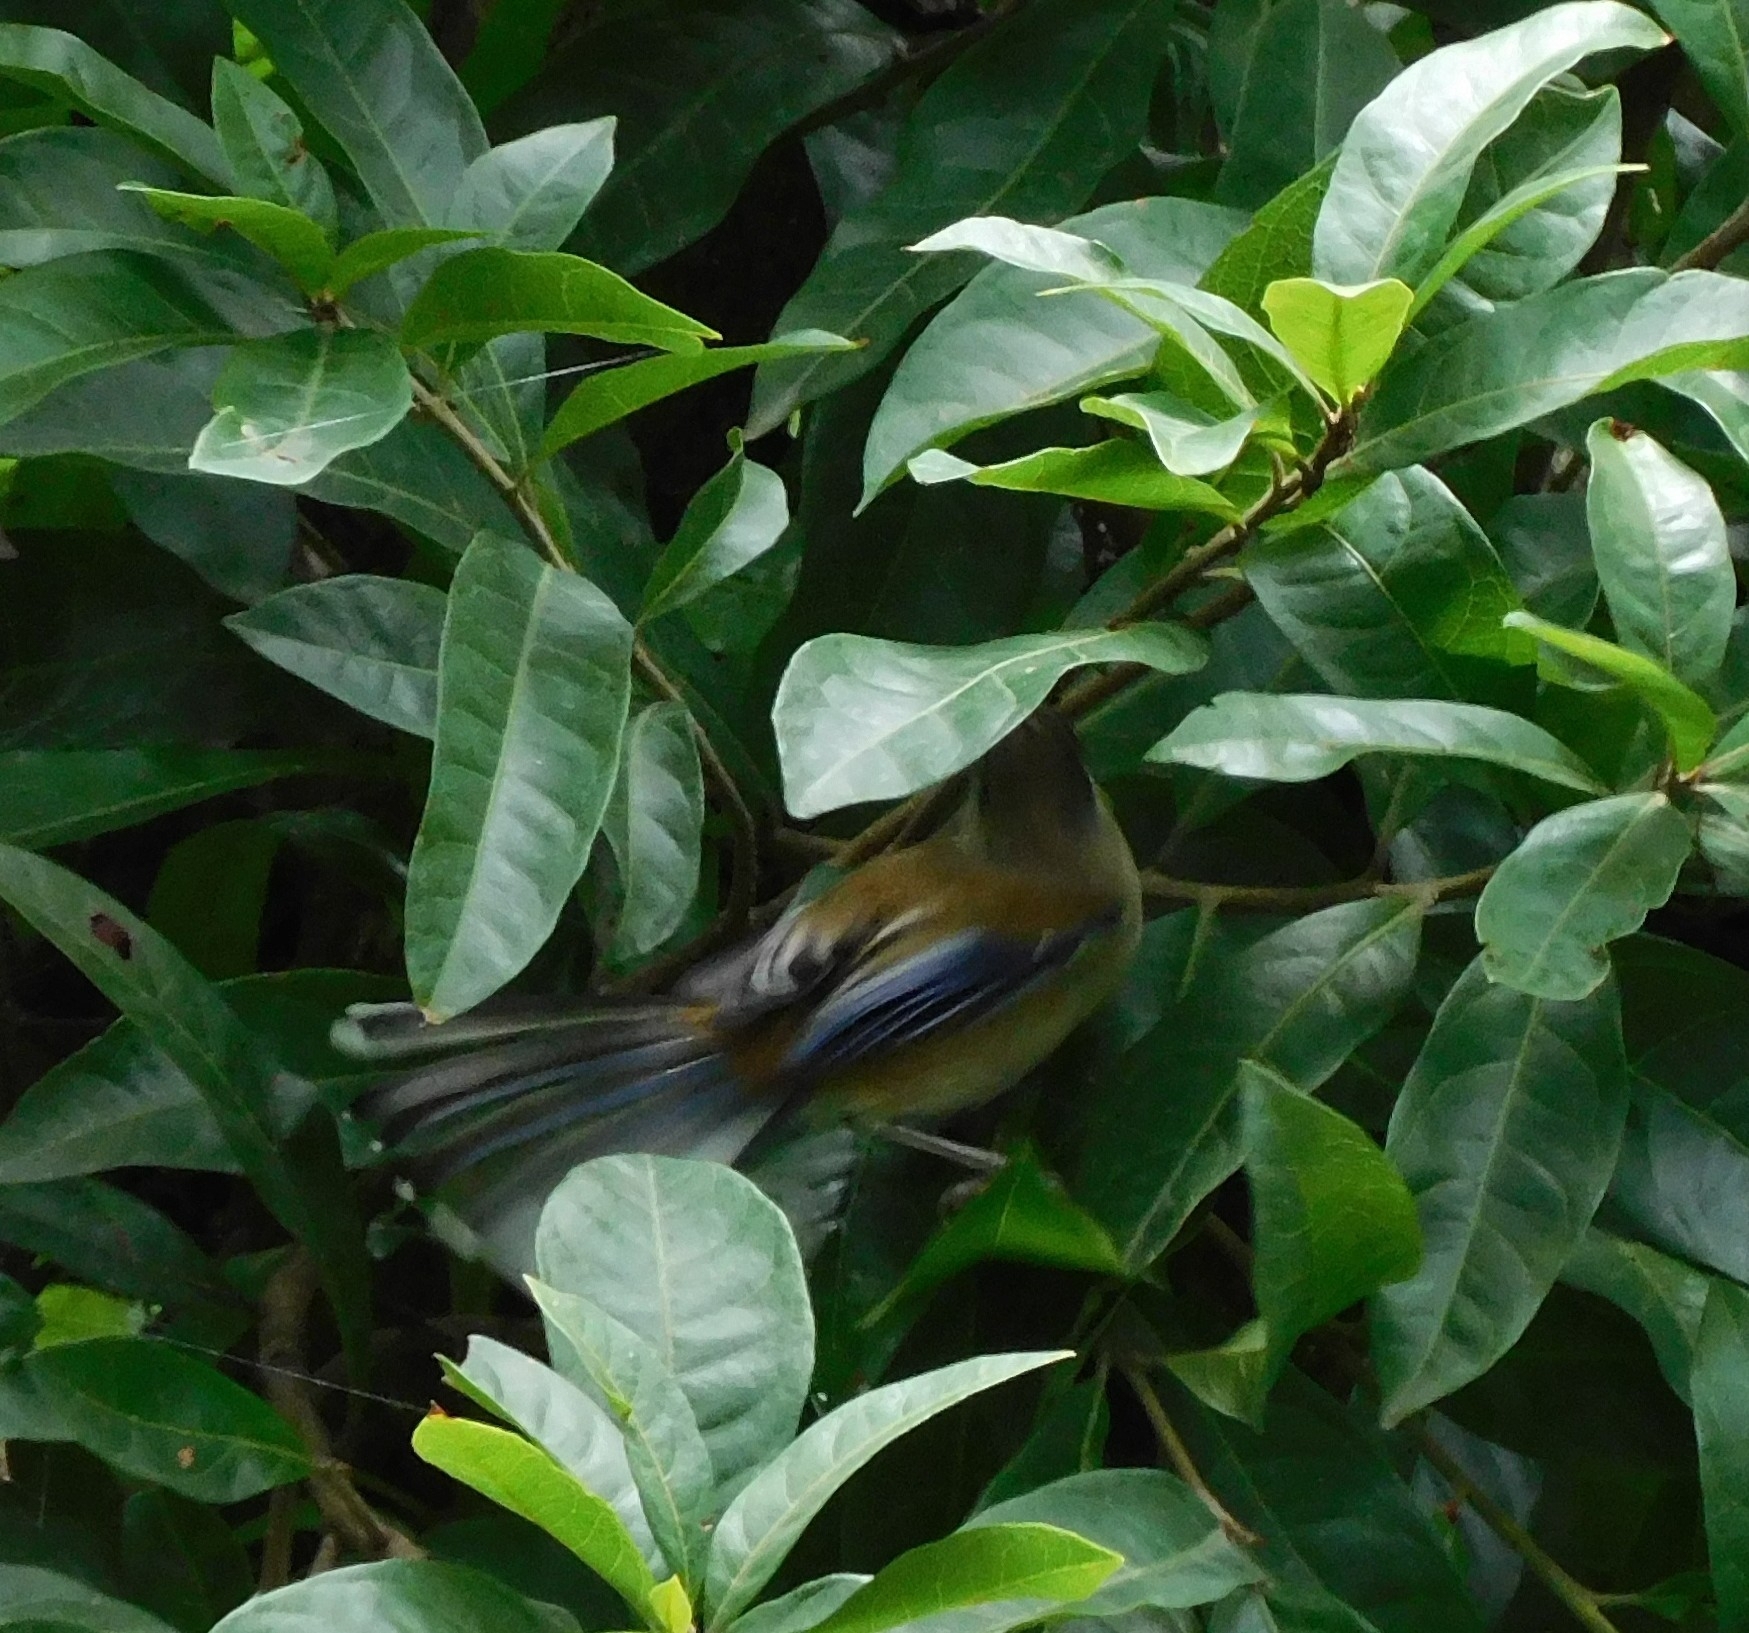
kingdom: Animalia
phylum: Chordata
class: Aves
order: Passeriformes
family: Leiothrichidae
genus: Minla
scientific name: Minla cyanouroptera
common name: Blue-winged minla
